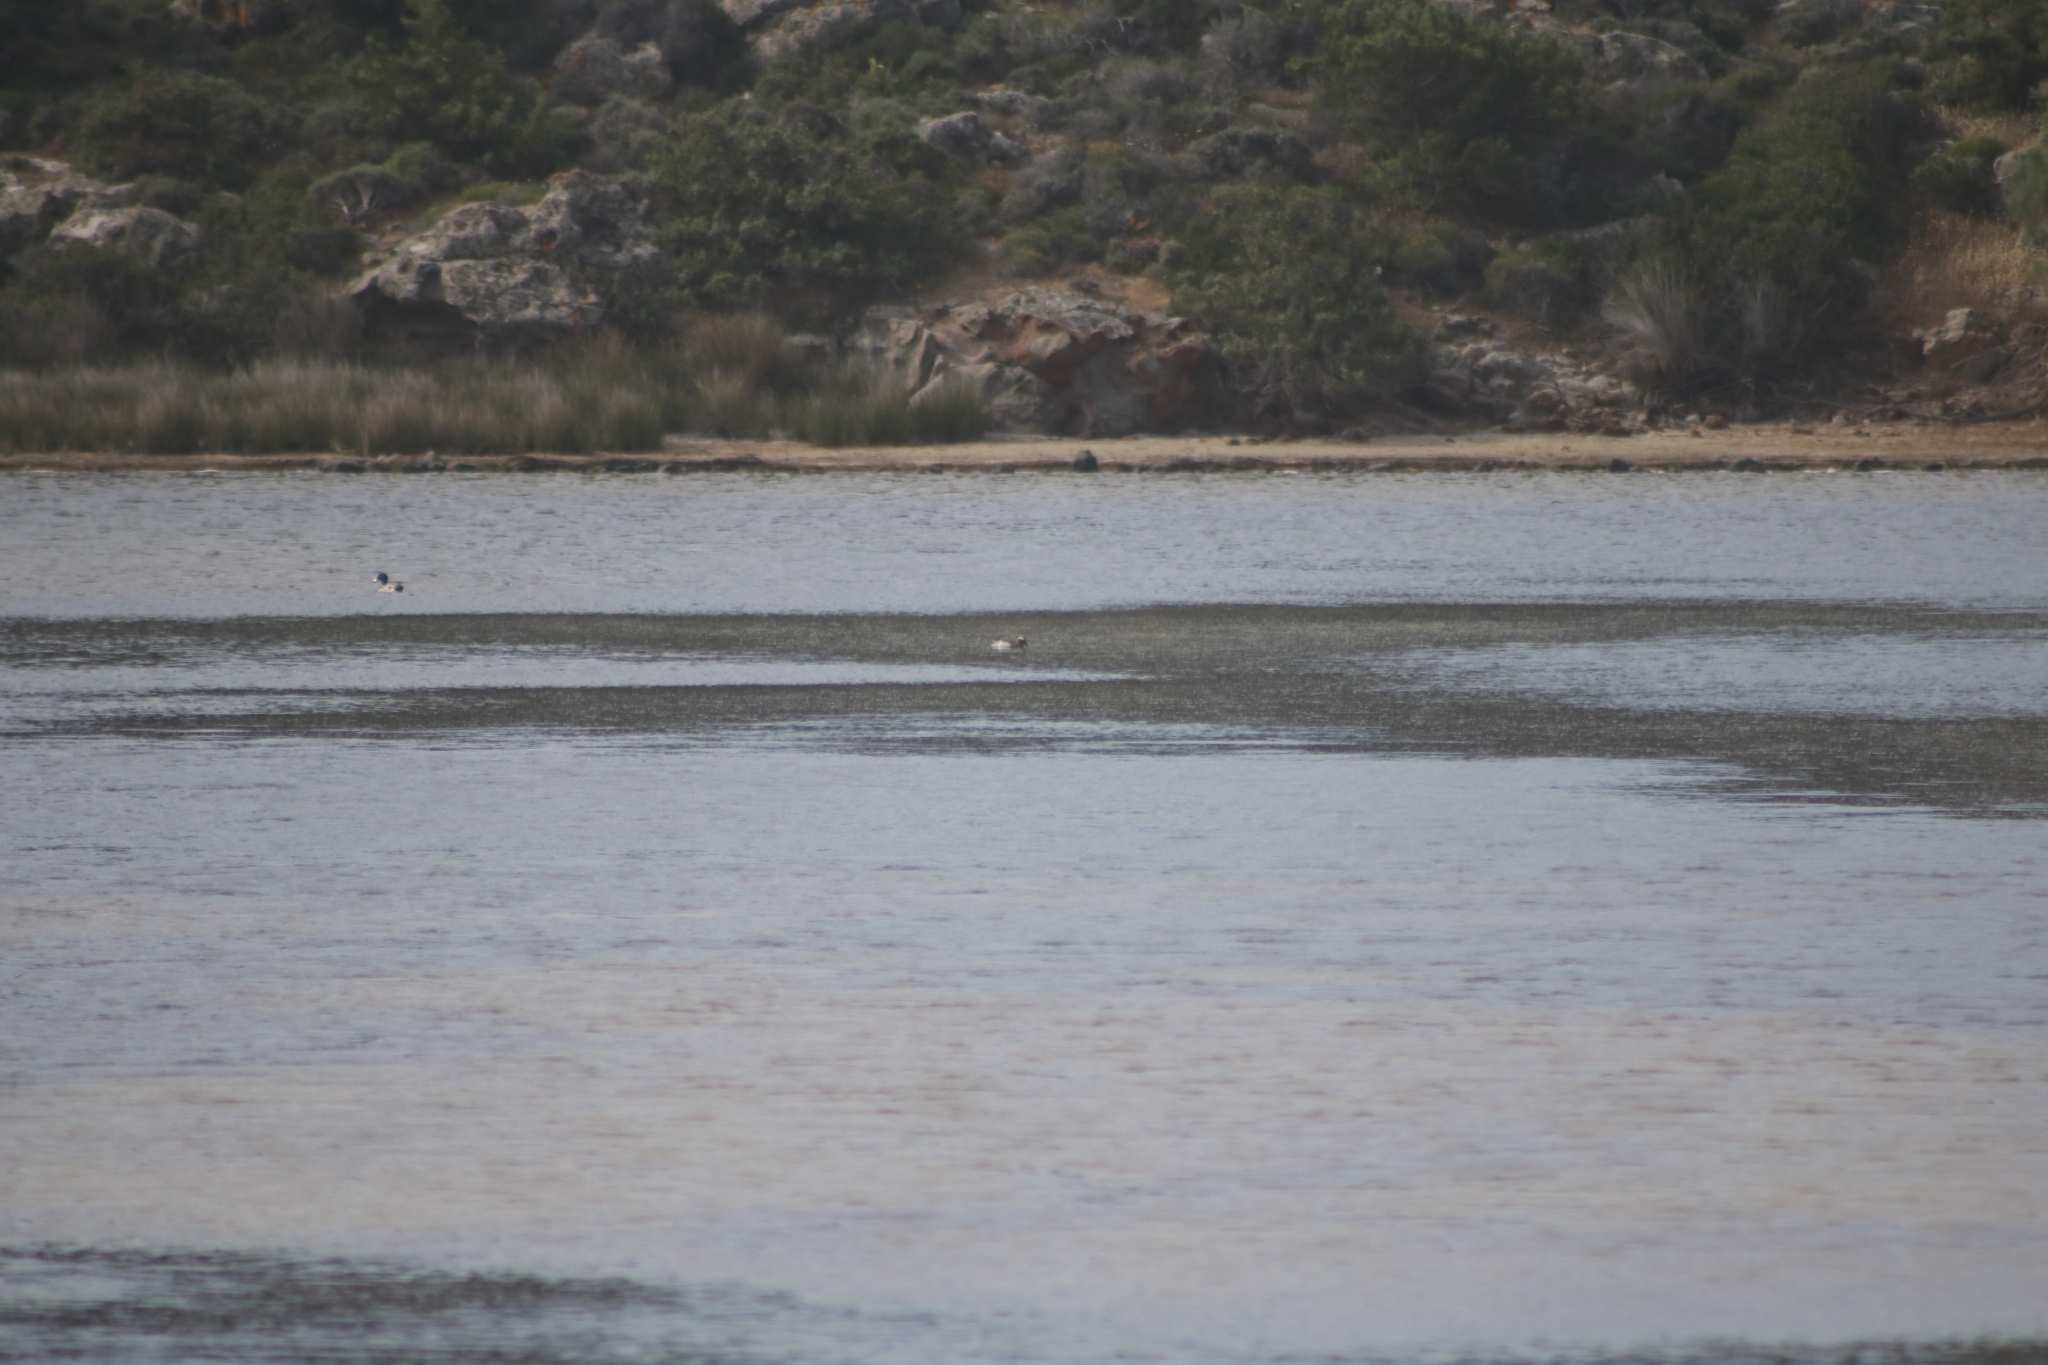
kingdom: Animalia
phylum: Chordata
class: Aves
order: Anseriformes
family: Anatidae
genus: Spatula
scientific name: Spatula querquedula
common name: Garganey
